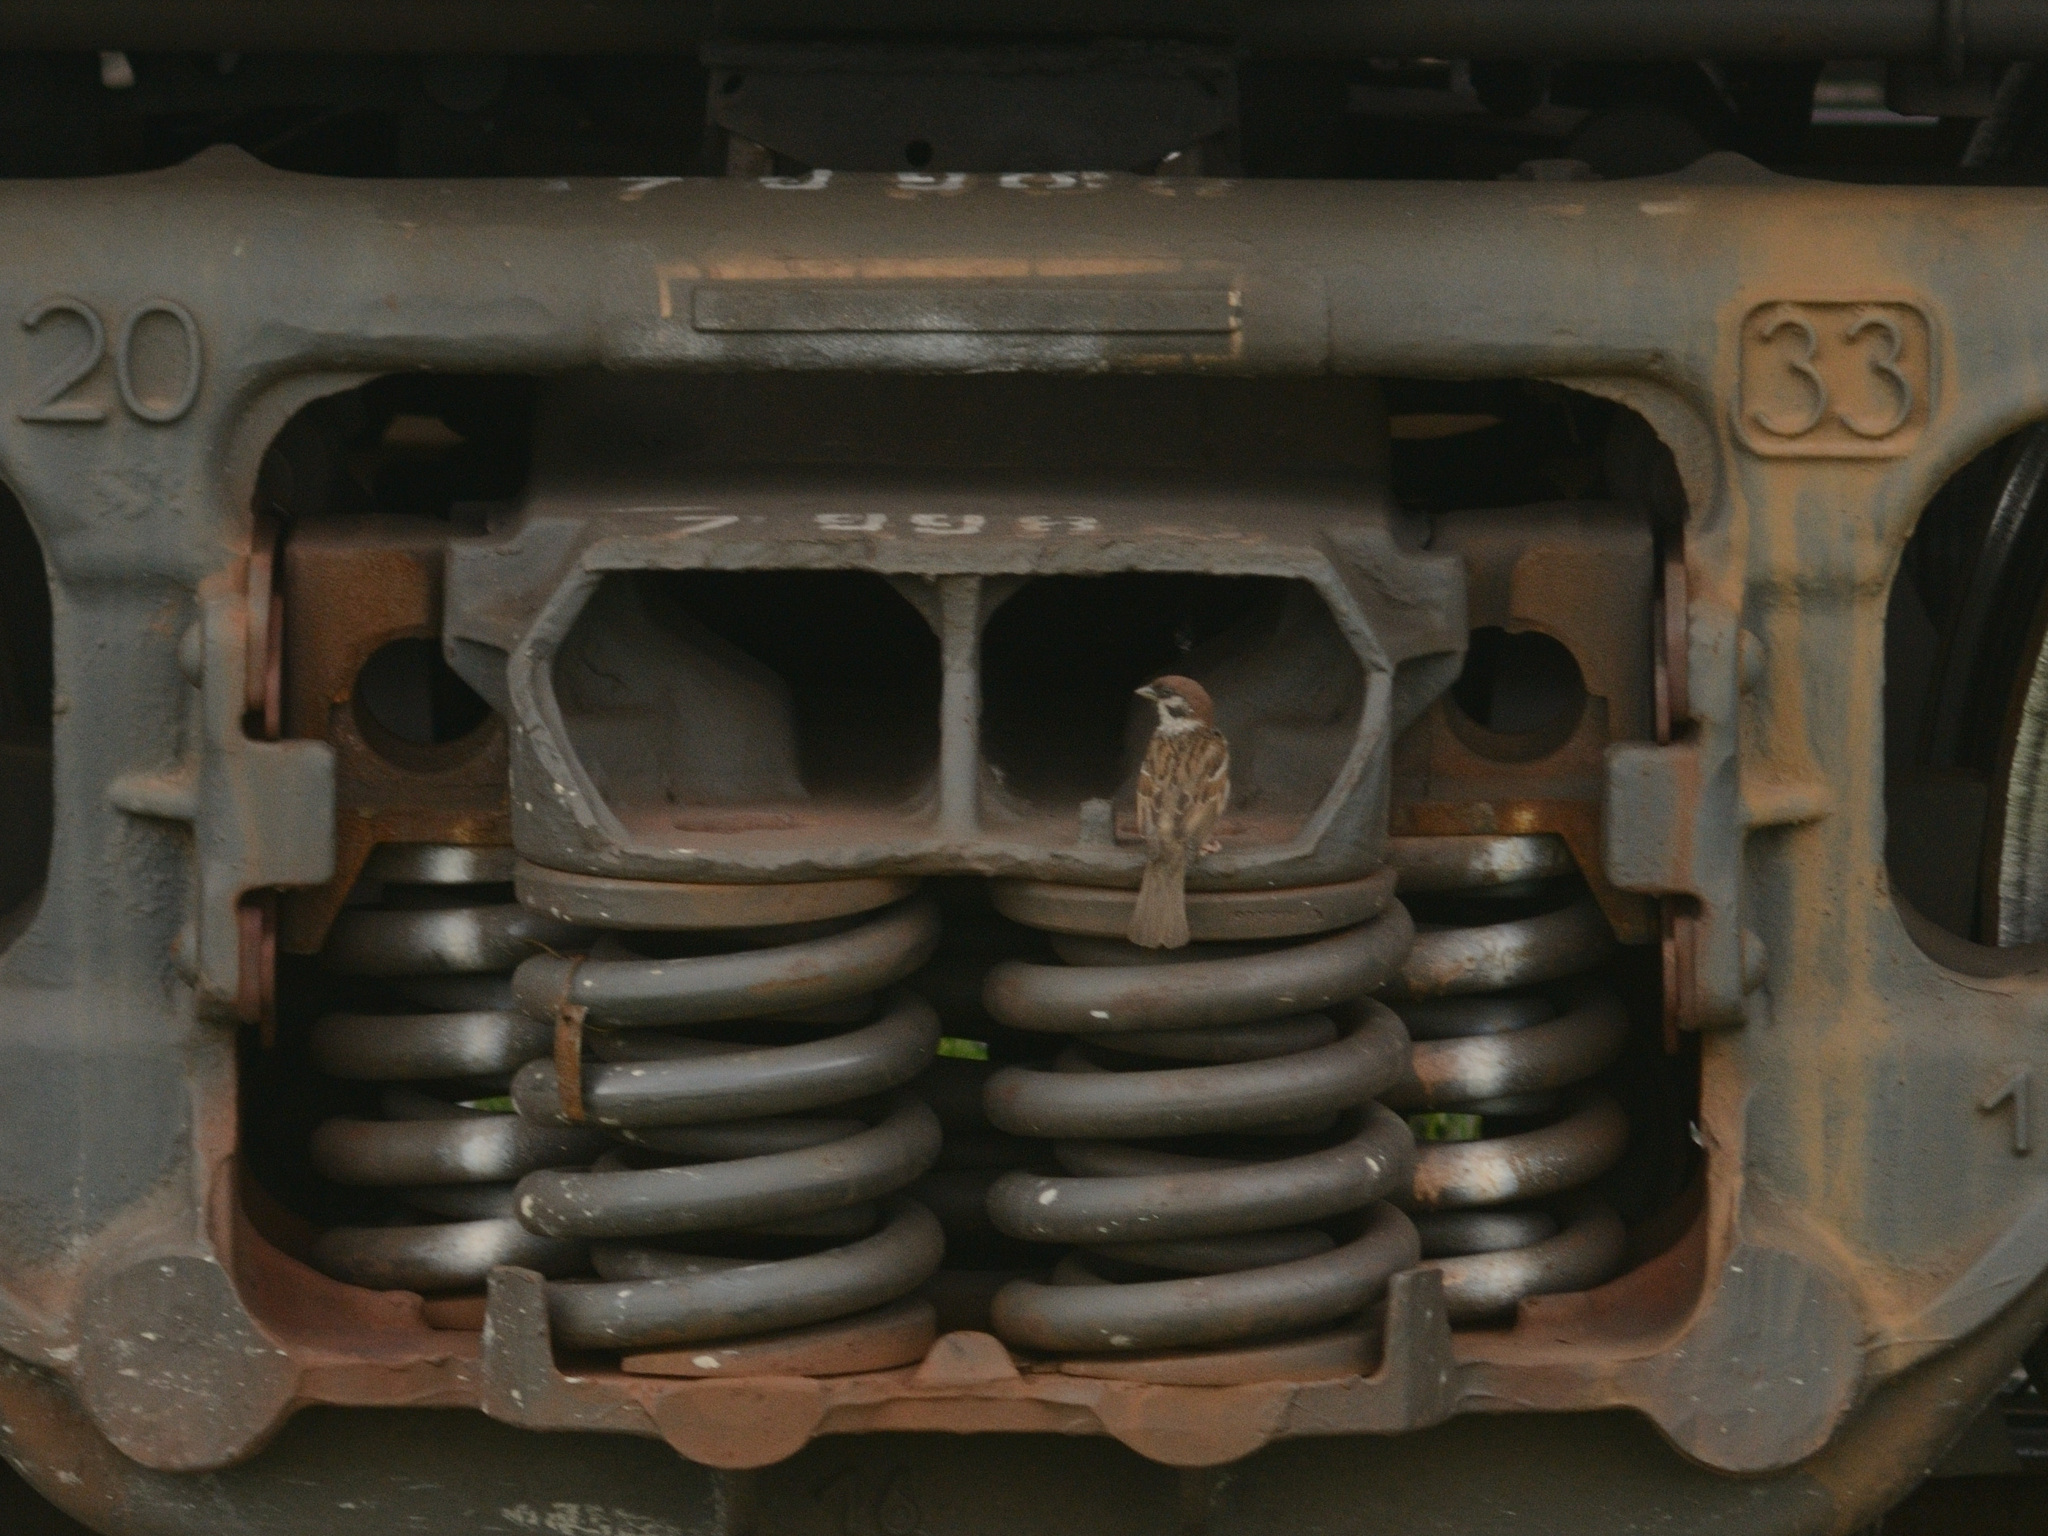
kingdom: Animalia
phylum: Chordata
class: Aves
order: Passeriformes
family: Passeridae
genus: Passer
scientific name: Passer montanus
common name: Eurasian tree sparrow
